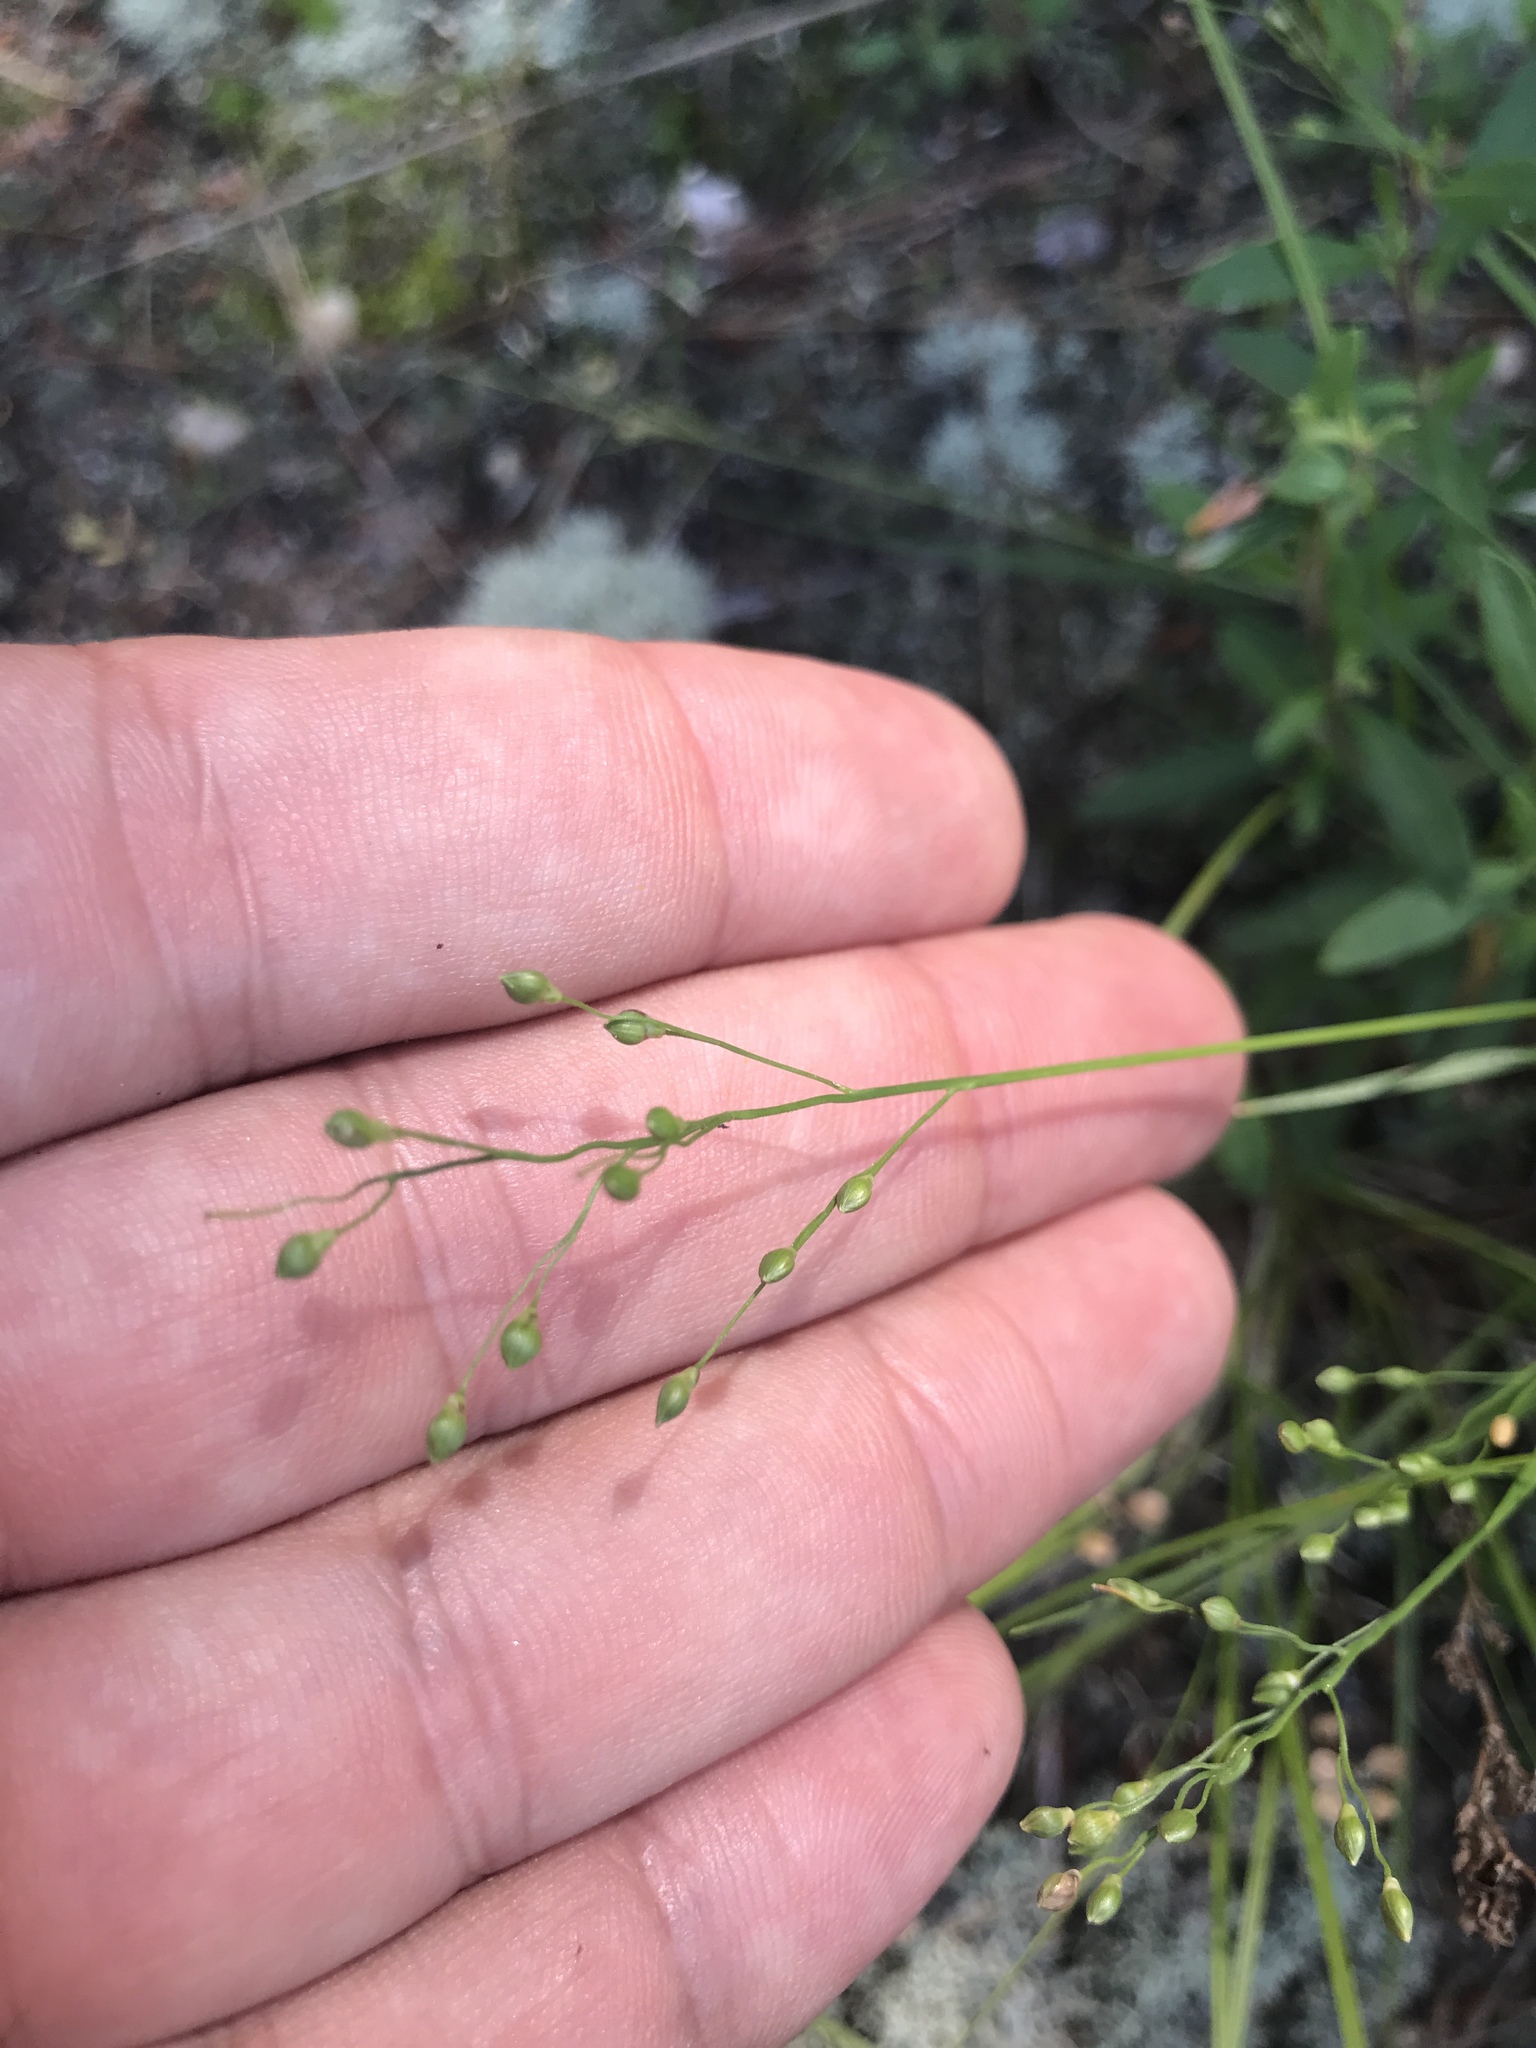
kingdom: Plantae
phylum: Tracheophyta
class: Liliopsida
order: Poales
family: Poaceae
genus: Dichanthelium
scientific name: Dichanthelium depauperatum
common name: Depauperate panicgrass
